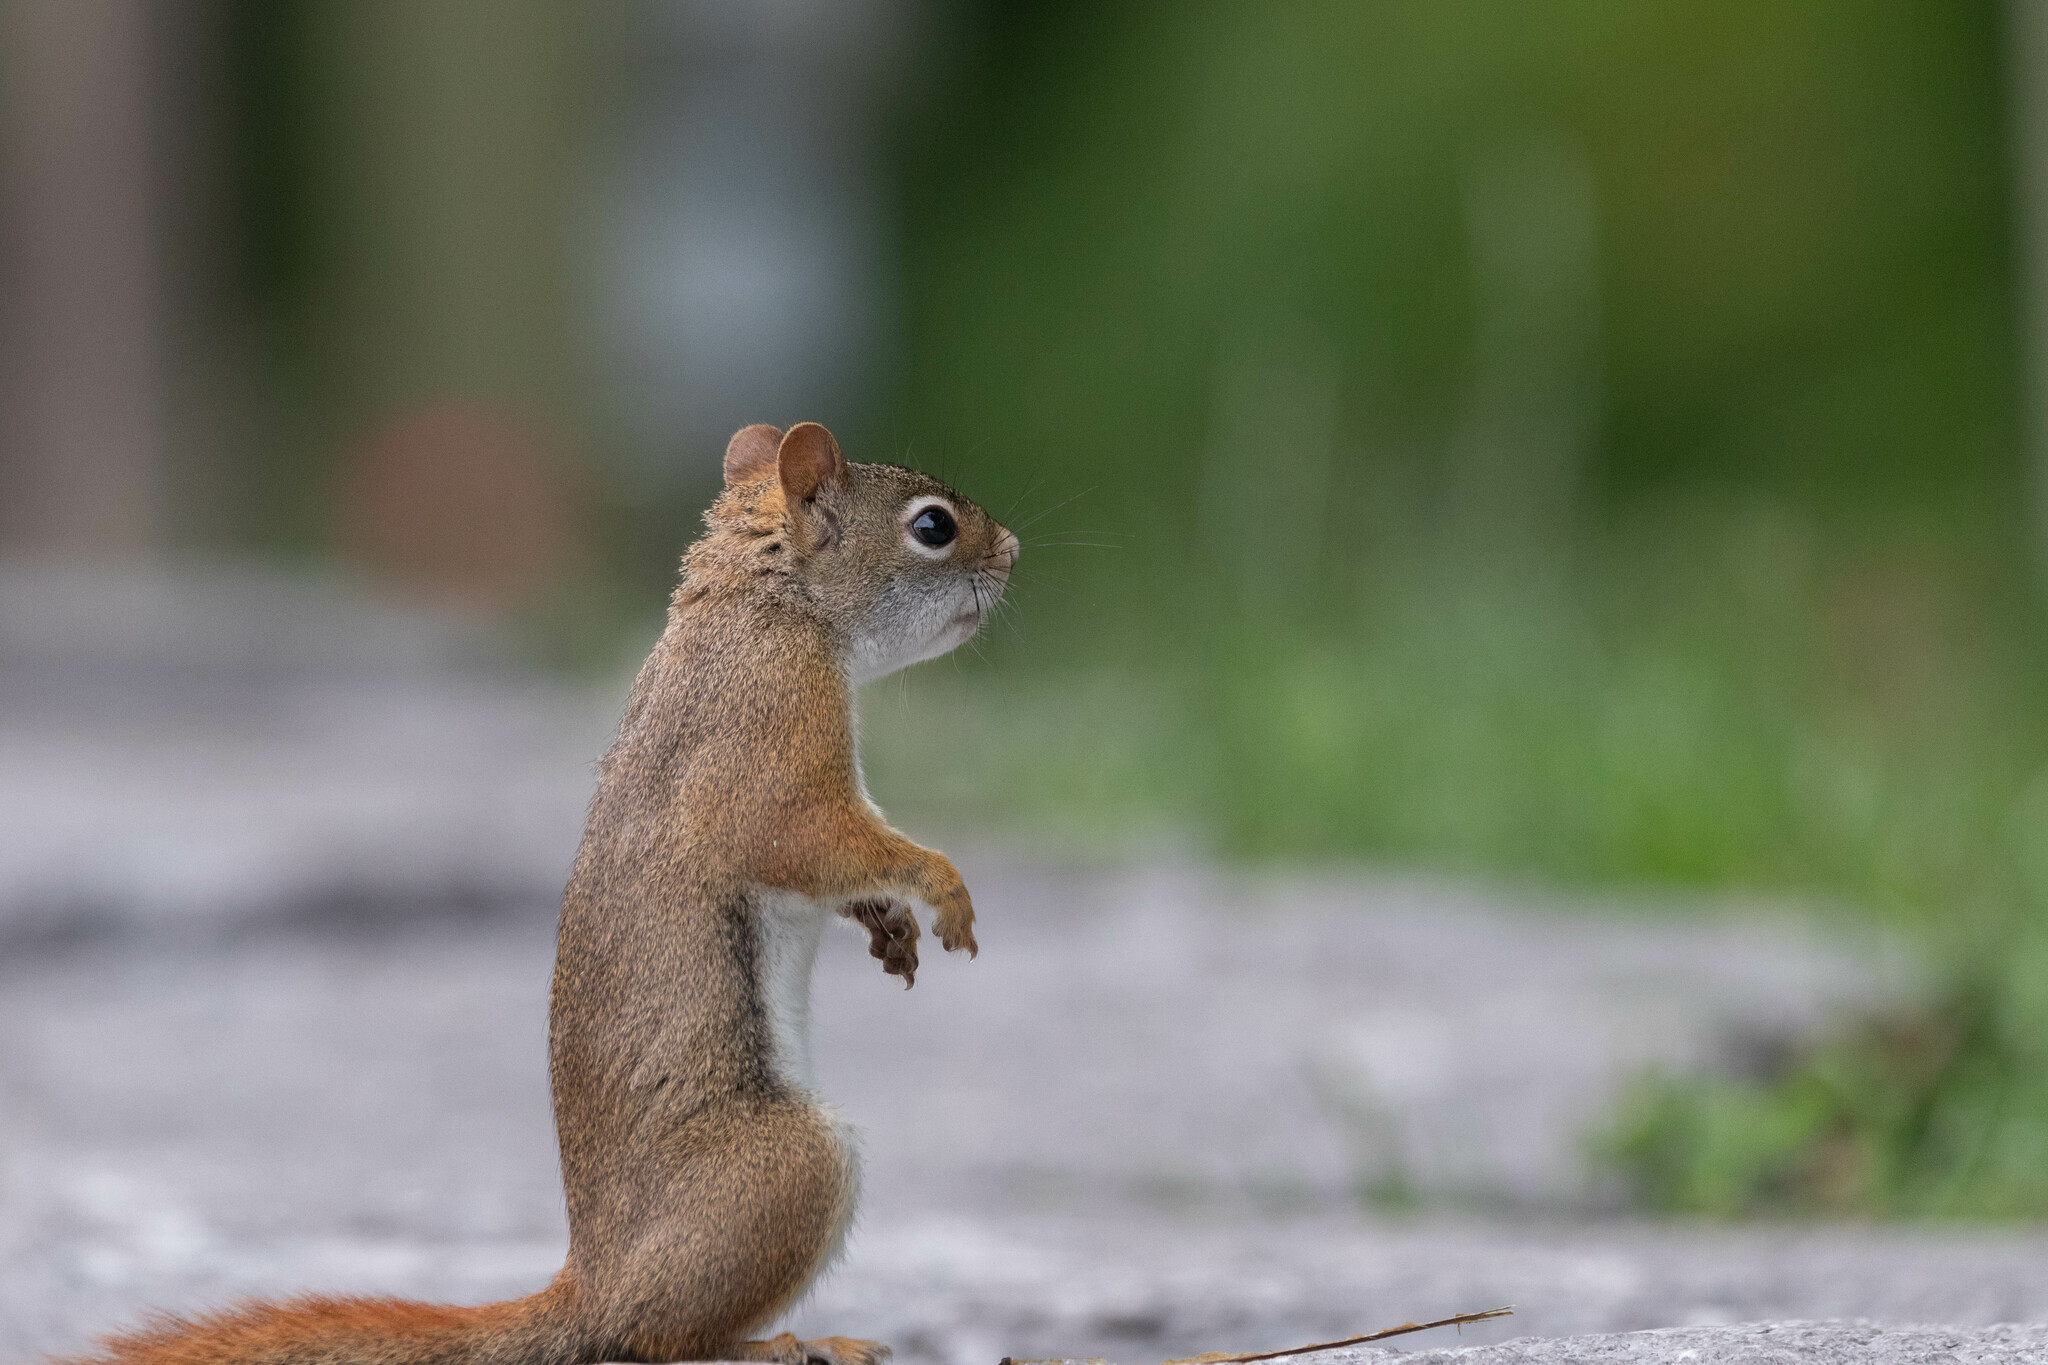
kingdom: Animalia
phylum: Chordata
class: Mammalia
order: Rodentia
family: Sciuridae
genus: Tamiasciurus
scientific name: Tamiasciurus hudsonicus
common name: Red squirrel
